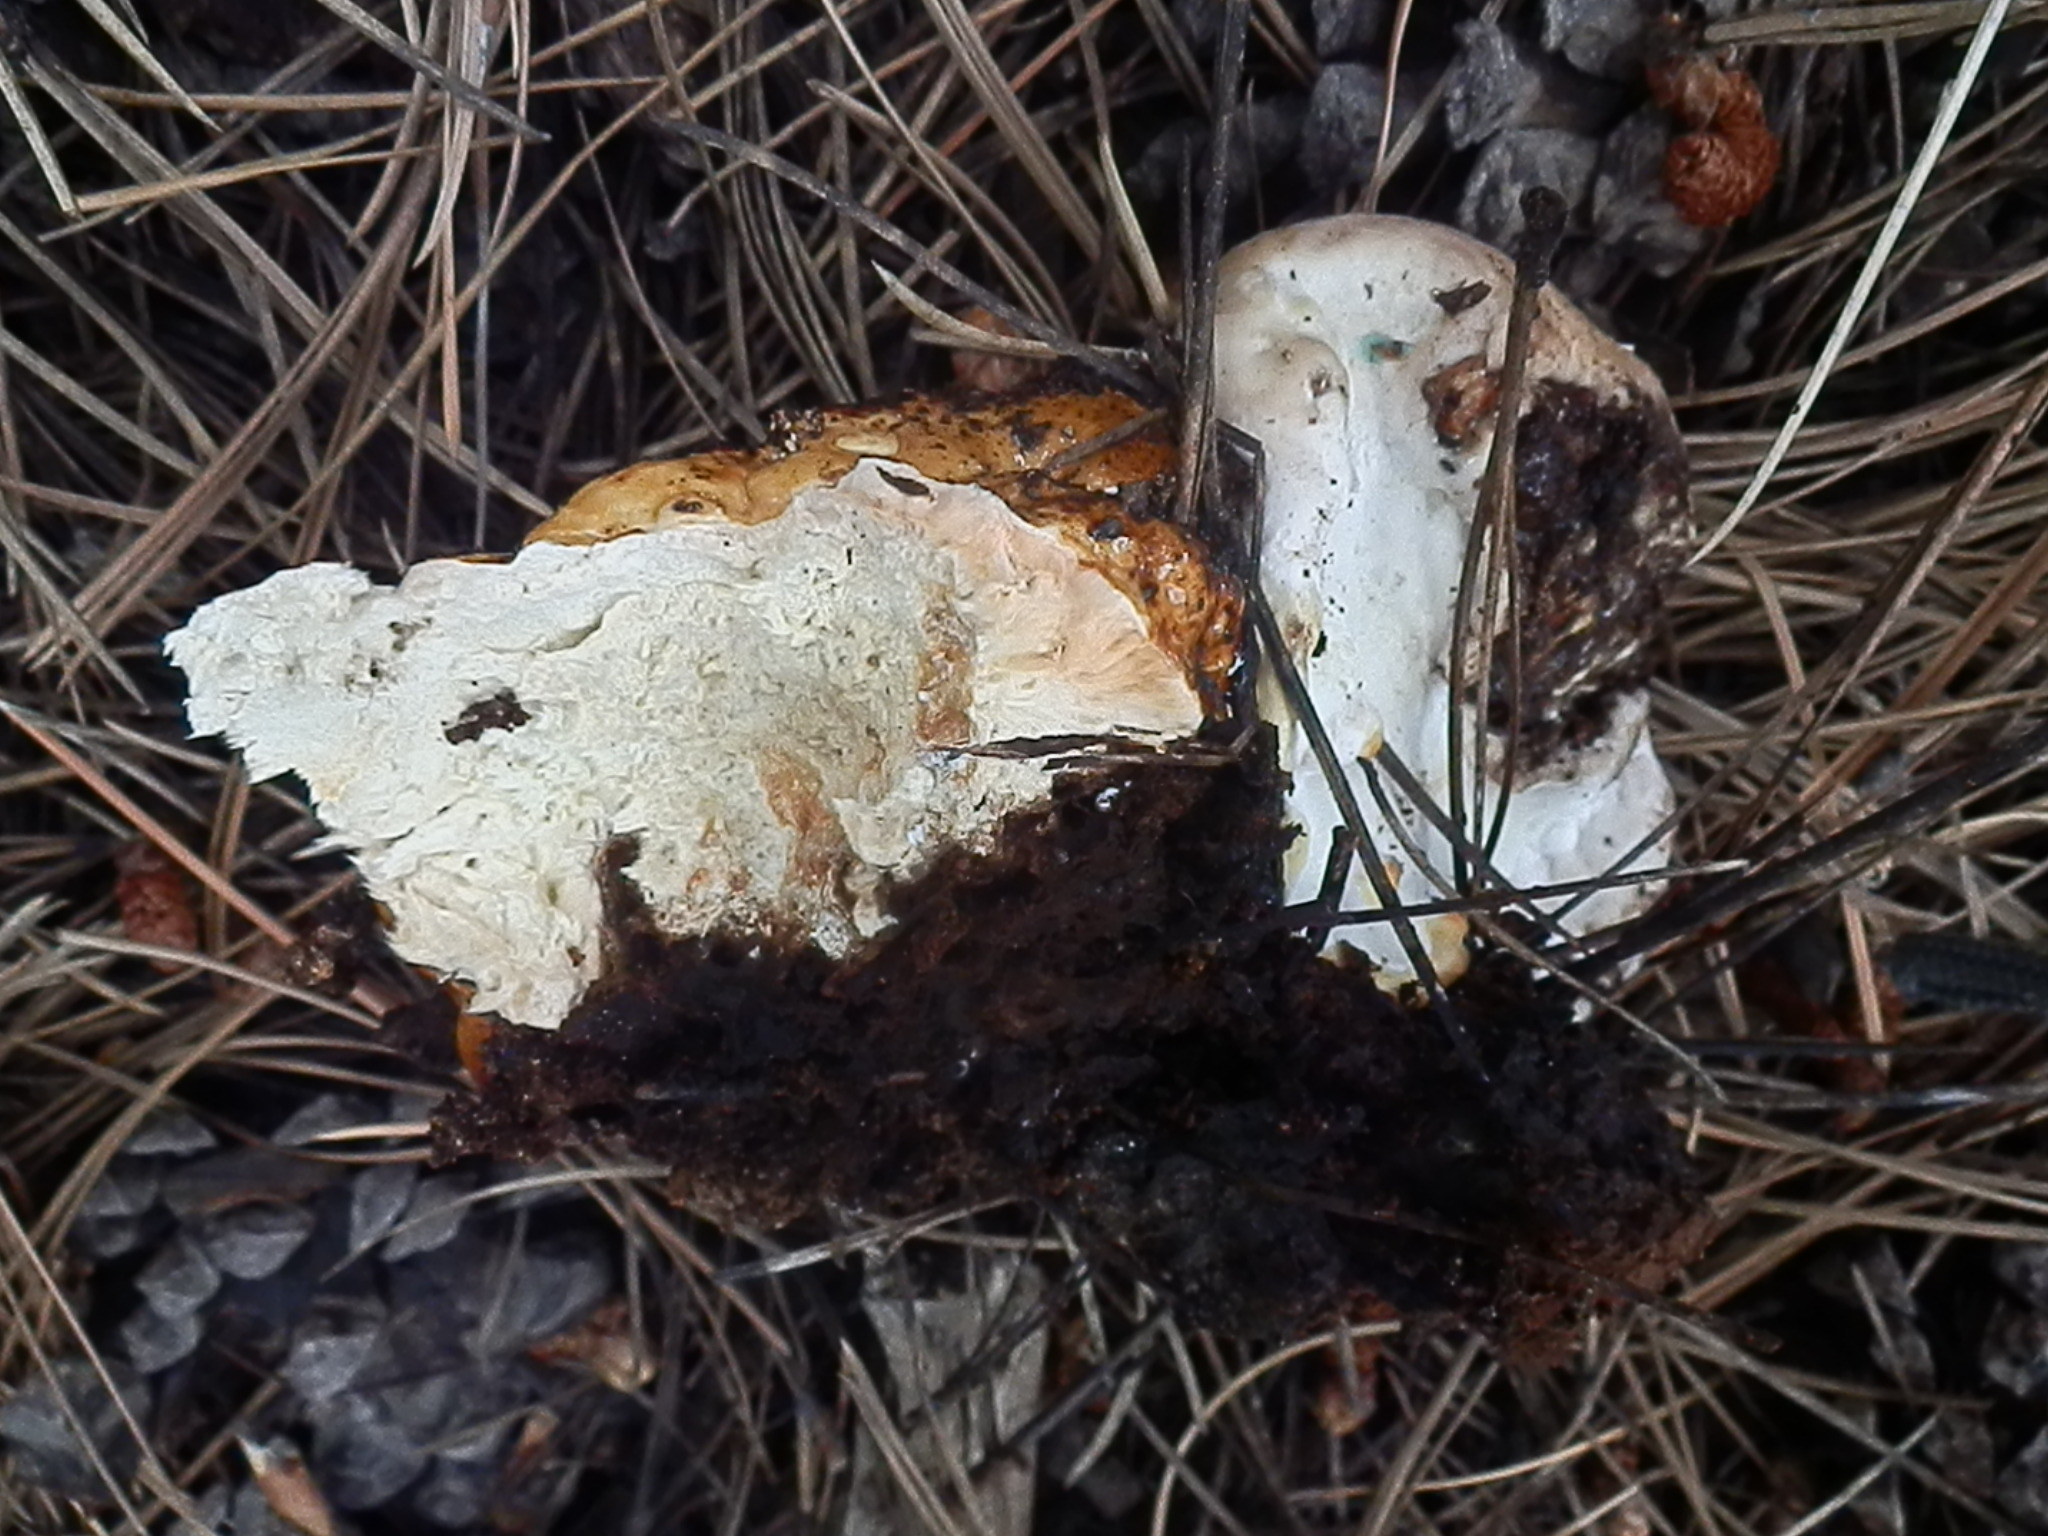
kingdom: Fungi
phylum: Basidiomycota
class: Agaricomycetes
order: Polyporales
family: Fomitopsidaceae
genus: Fomitopsis
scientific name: Fomitopsis schrenkii
